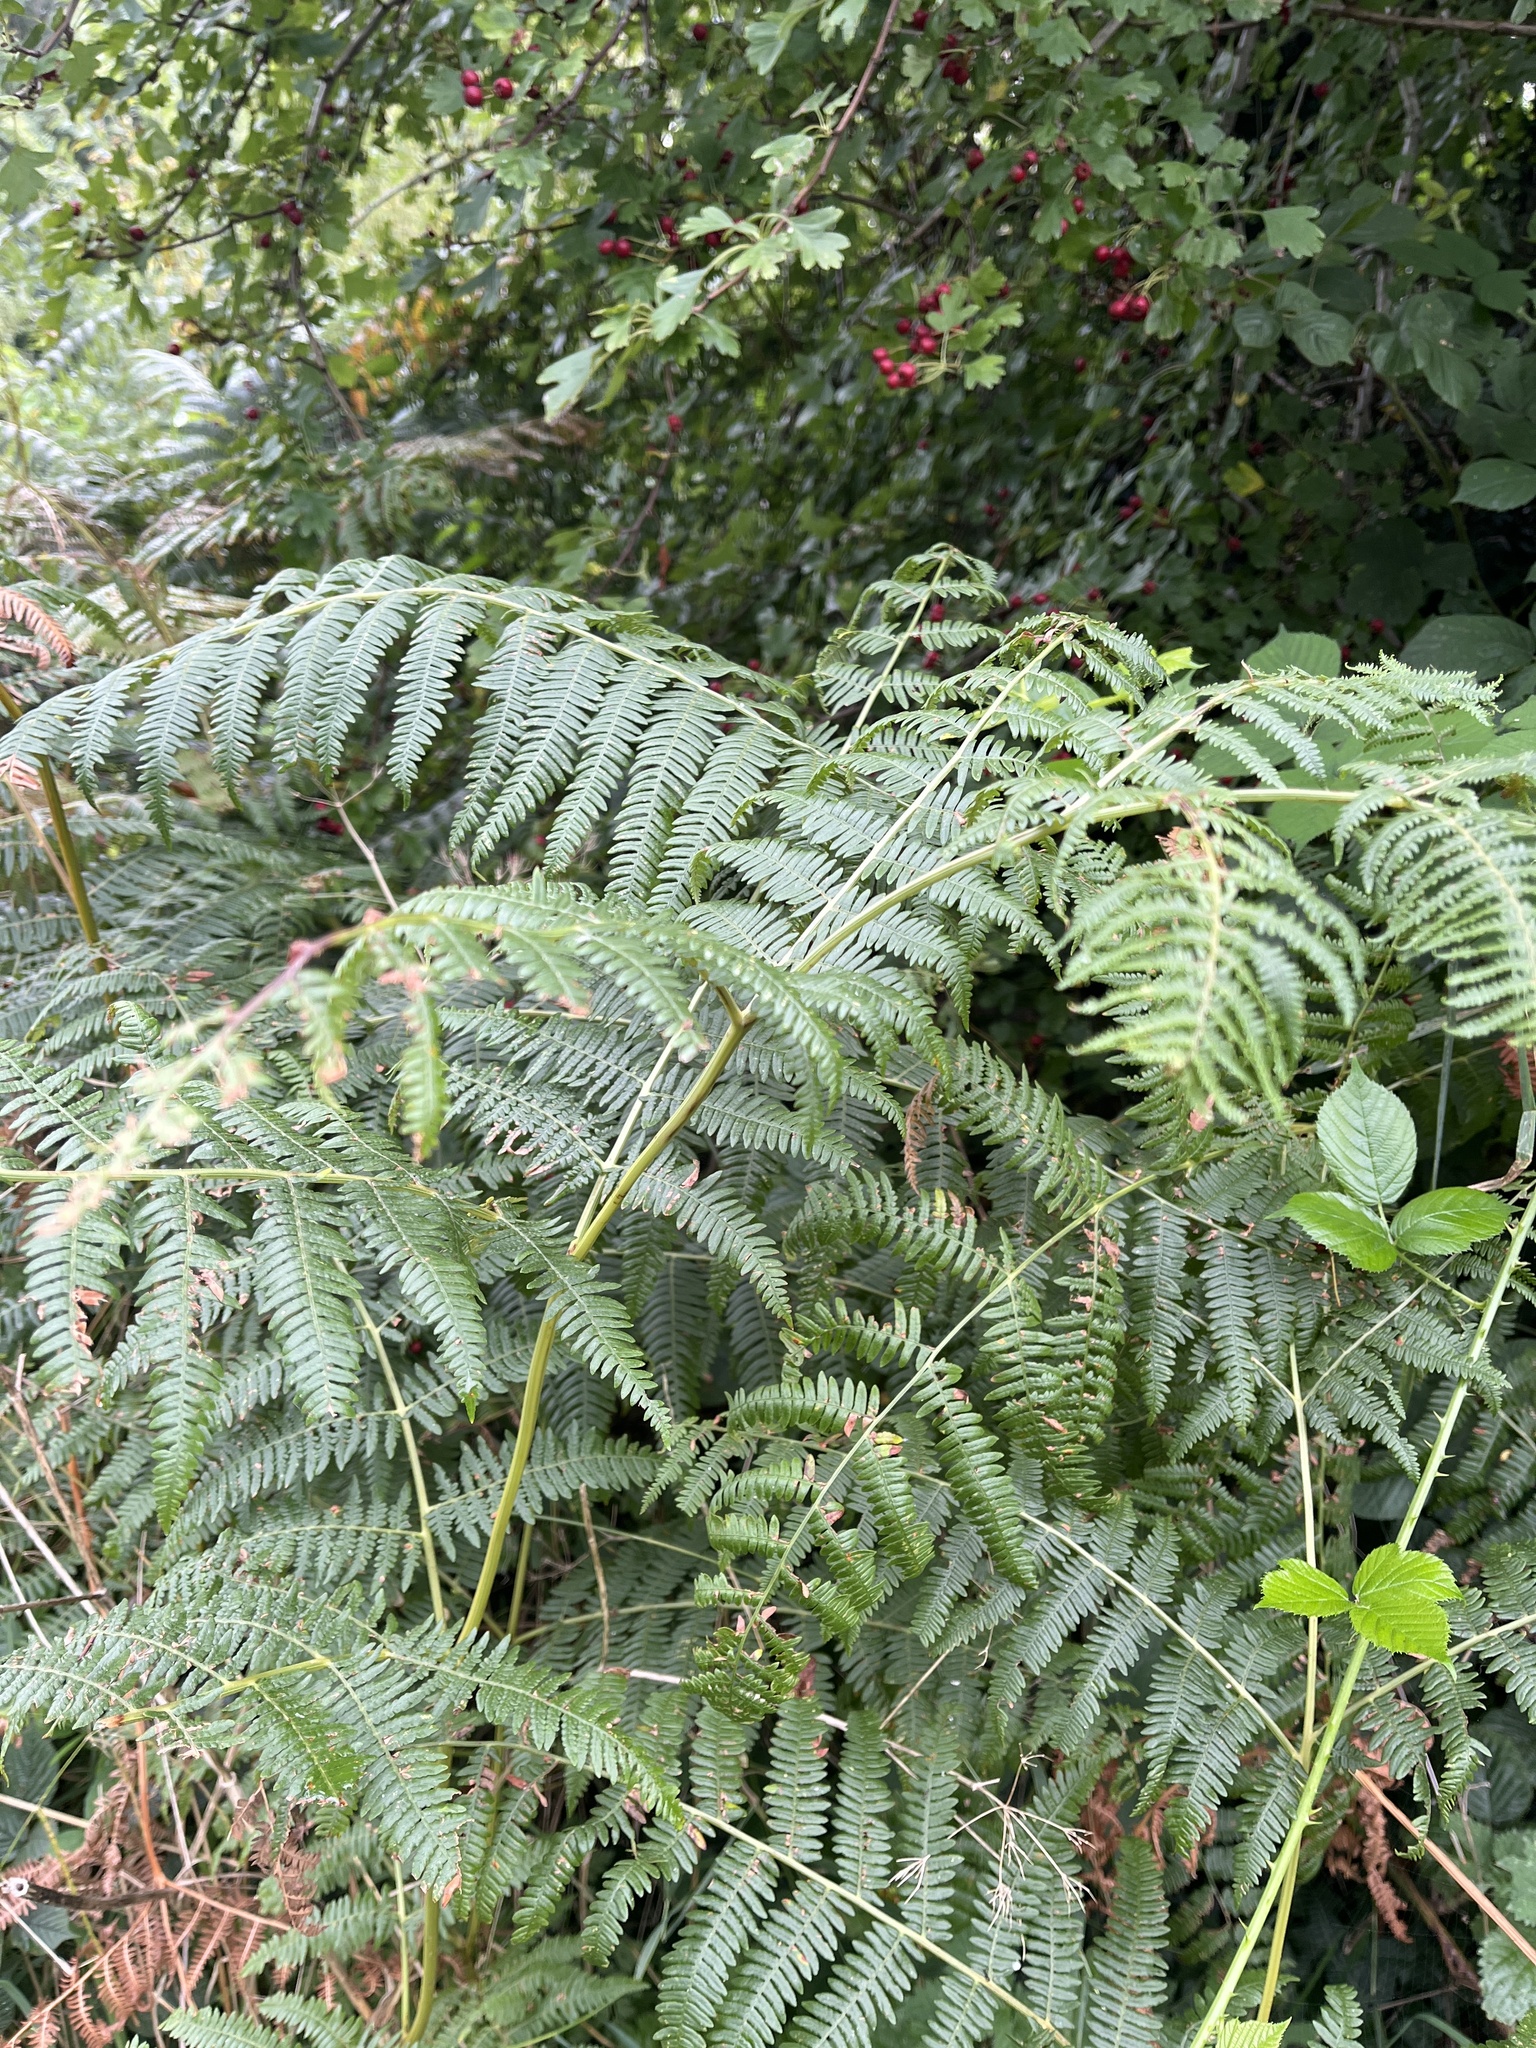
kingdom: Plantae
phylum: Tracheophyta
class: Polypodiopsida
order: Polypodiales
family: Dennstaedtiaceae
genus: Pteridium
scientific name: Pteridium aquilinum
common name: Bracken
